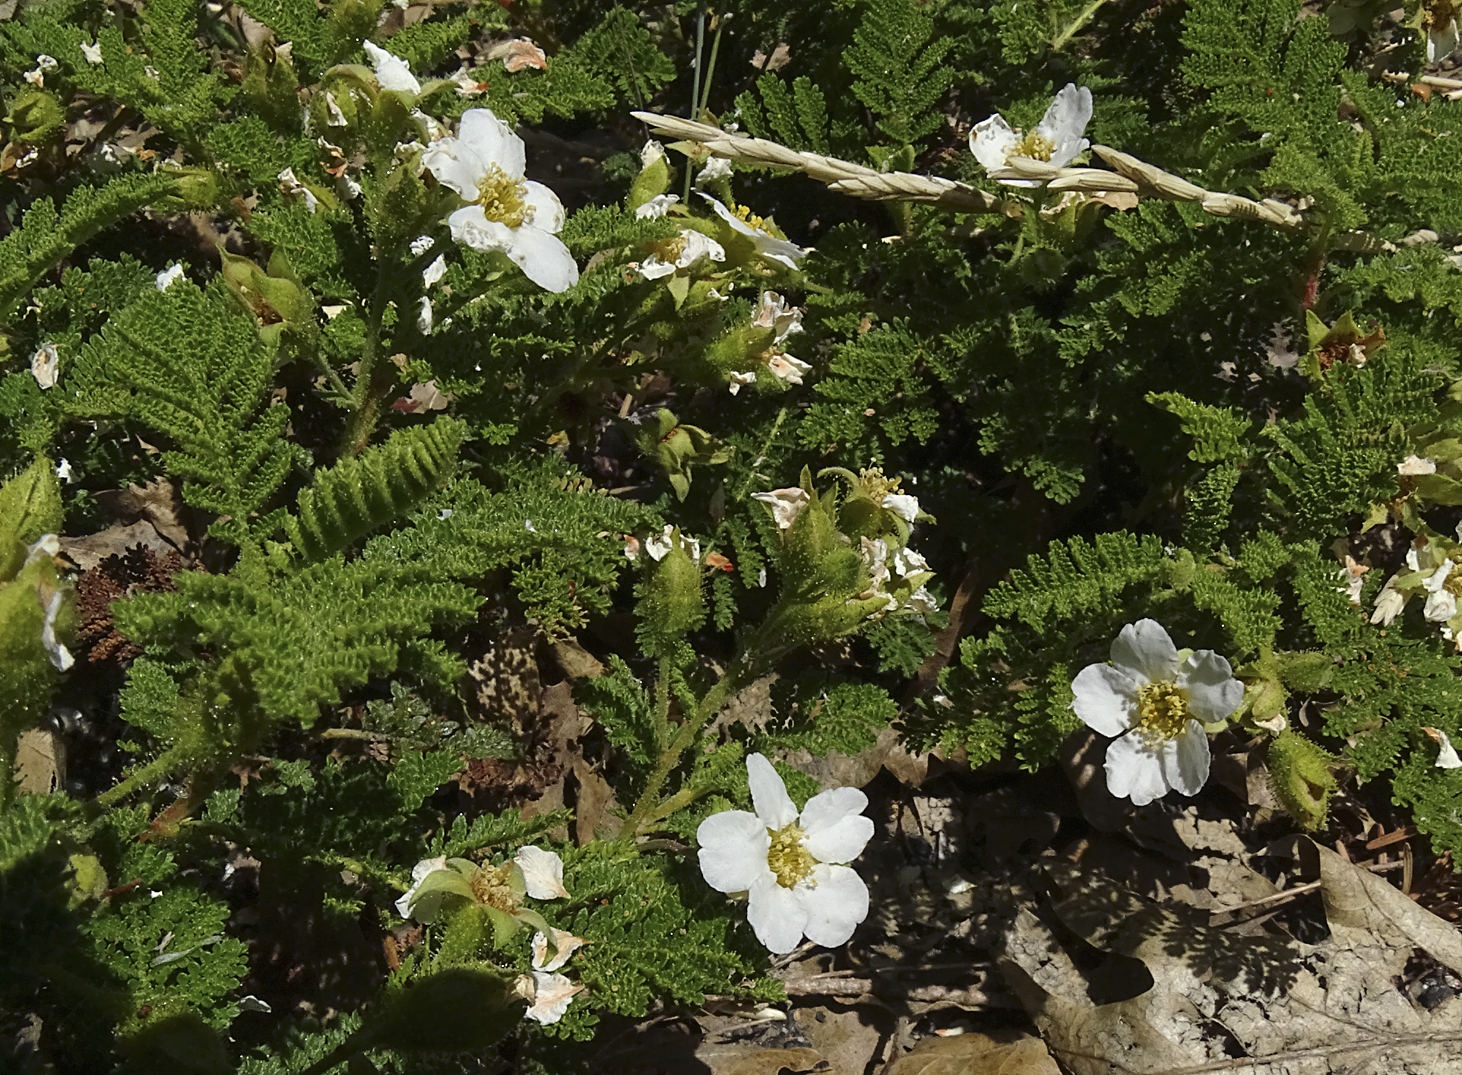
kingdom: Plantae
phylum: Tracheophyta
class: Magnoliopsida
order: Rosales
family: Rosaceae
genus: Chamaebatia
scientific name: Chamaebatia foliolosa
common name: Mountain misery
